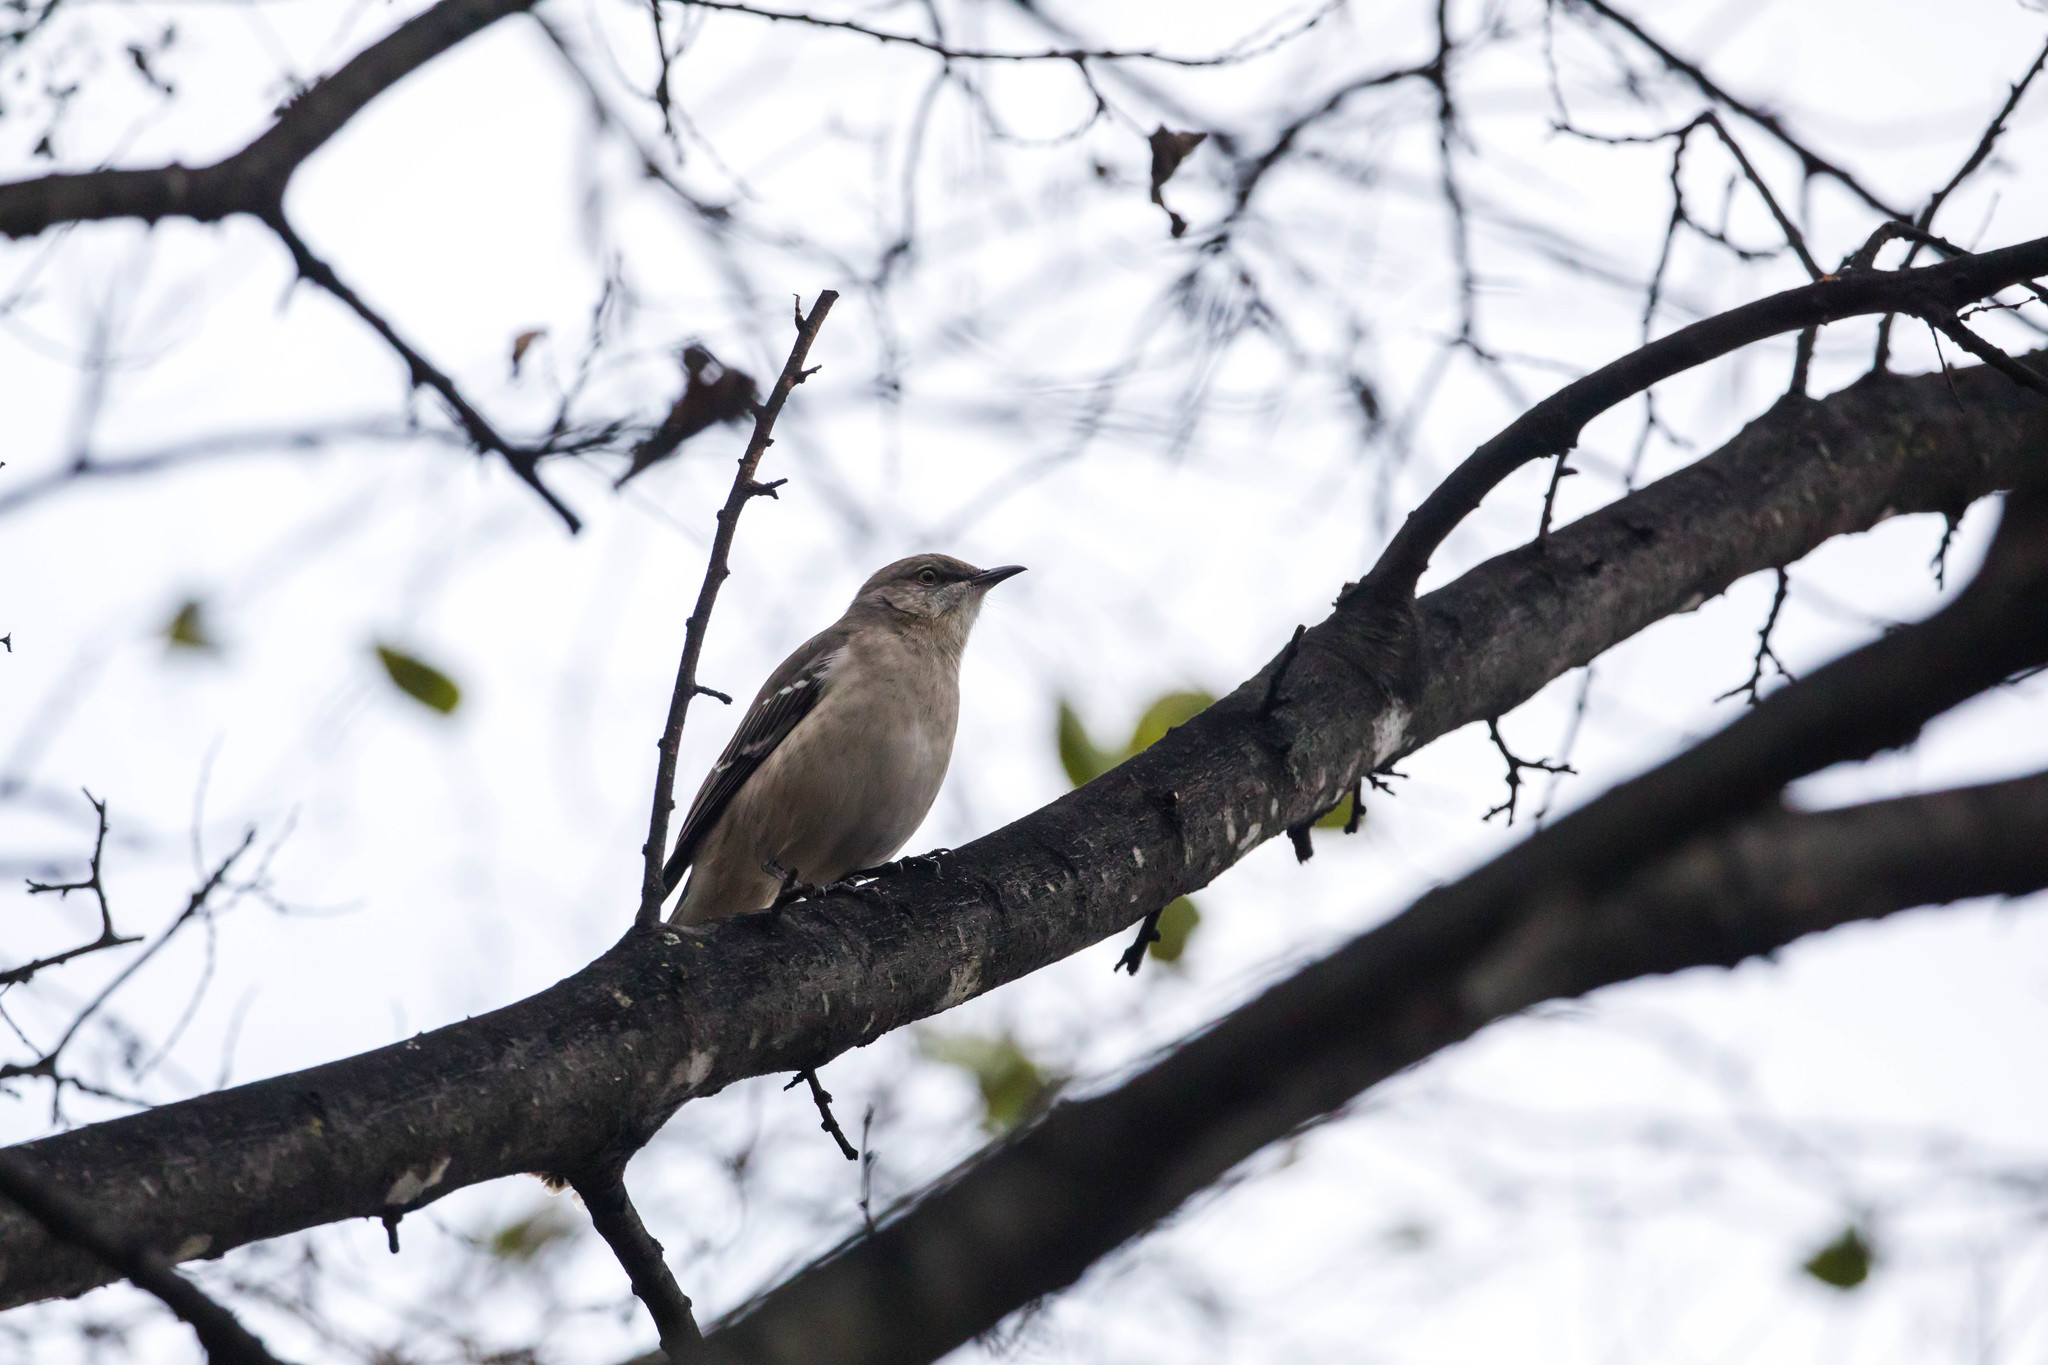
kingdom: Animalia
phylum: Chordata
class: Aves
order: Passeriformes
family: Mimidae
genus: Mimus
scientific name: Mimus polyglottos
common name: Northern mockingbird
